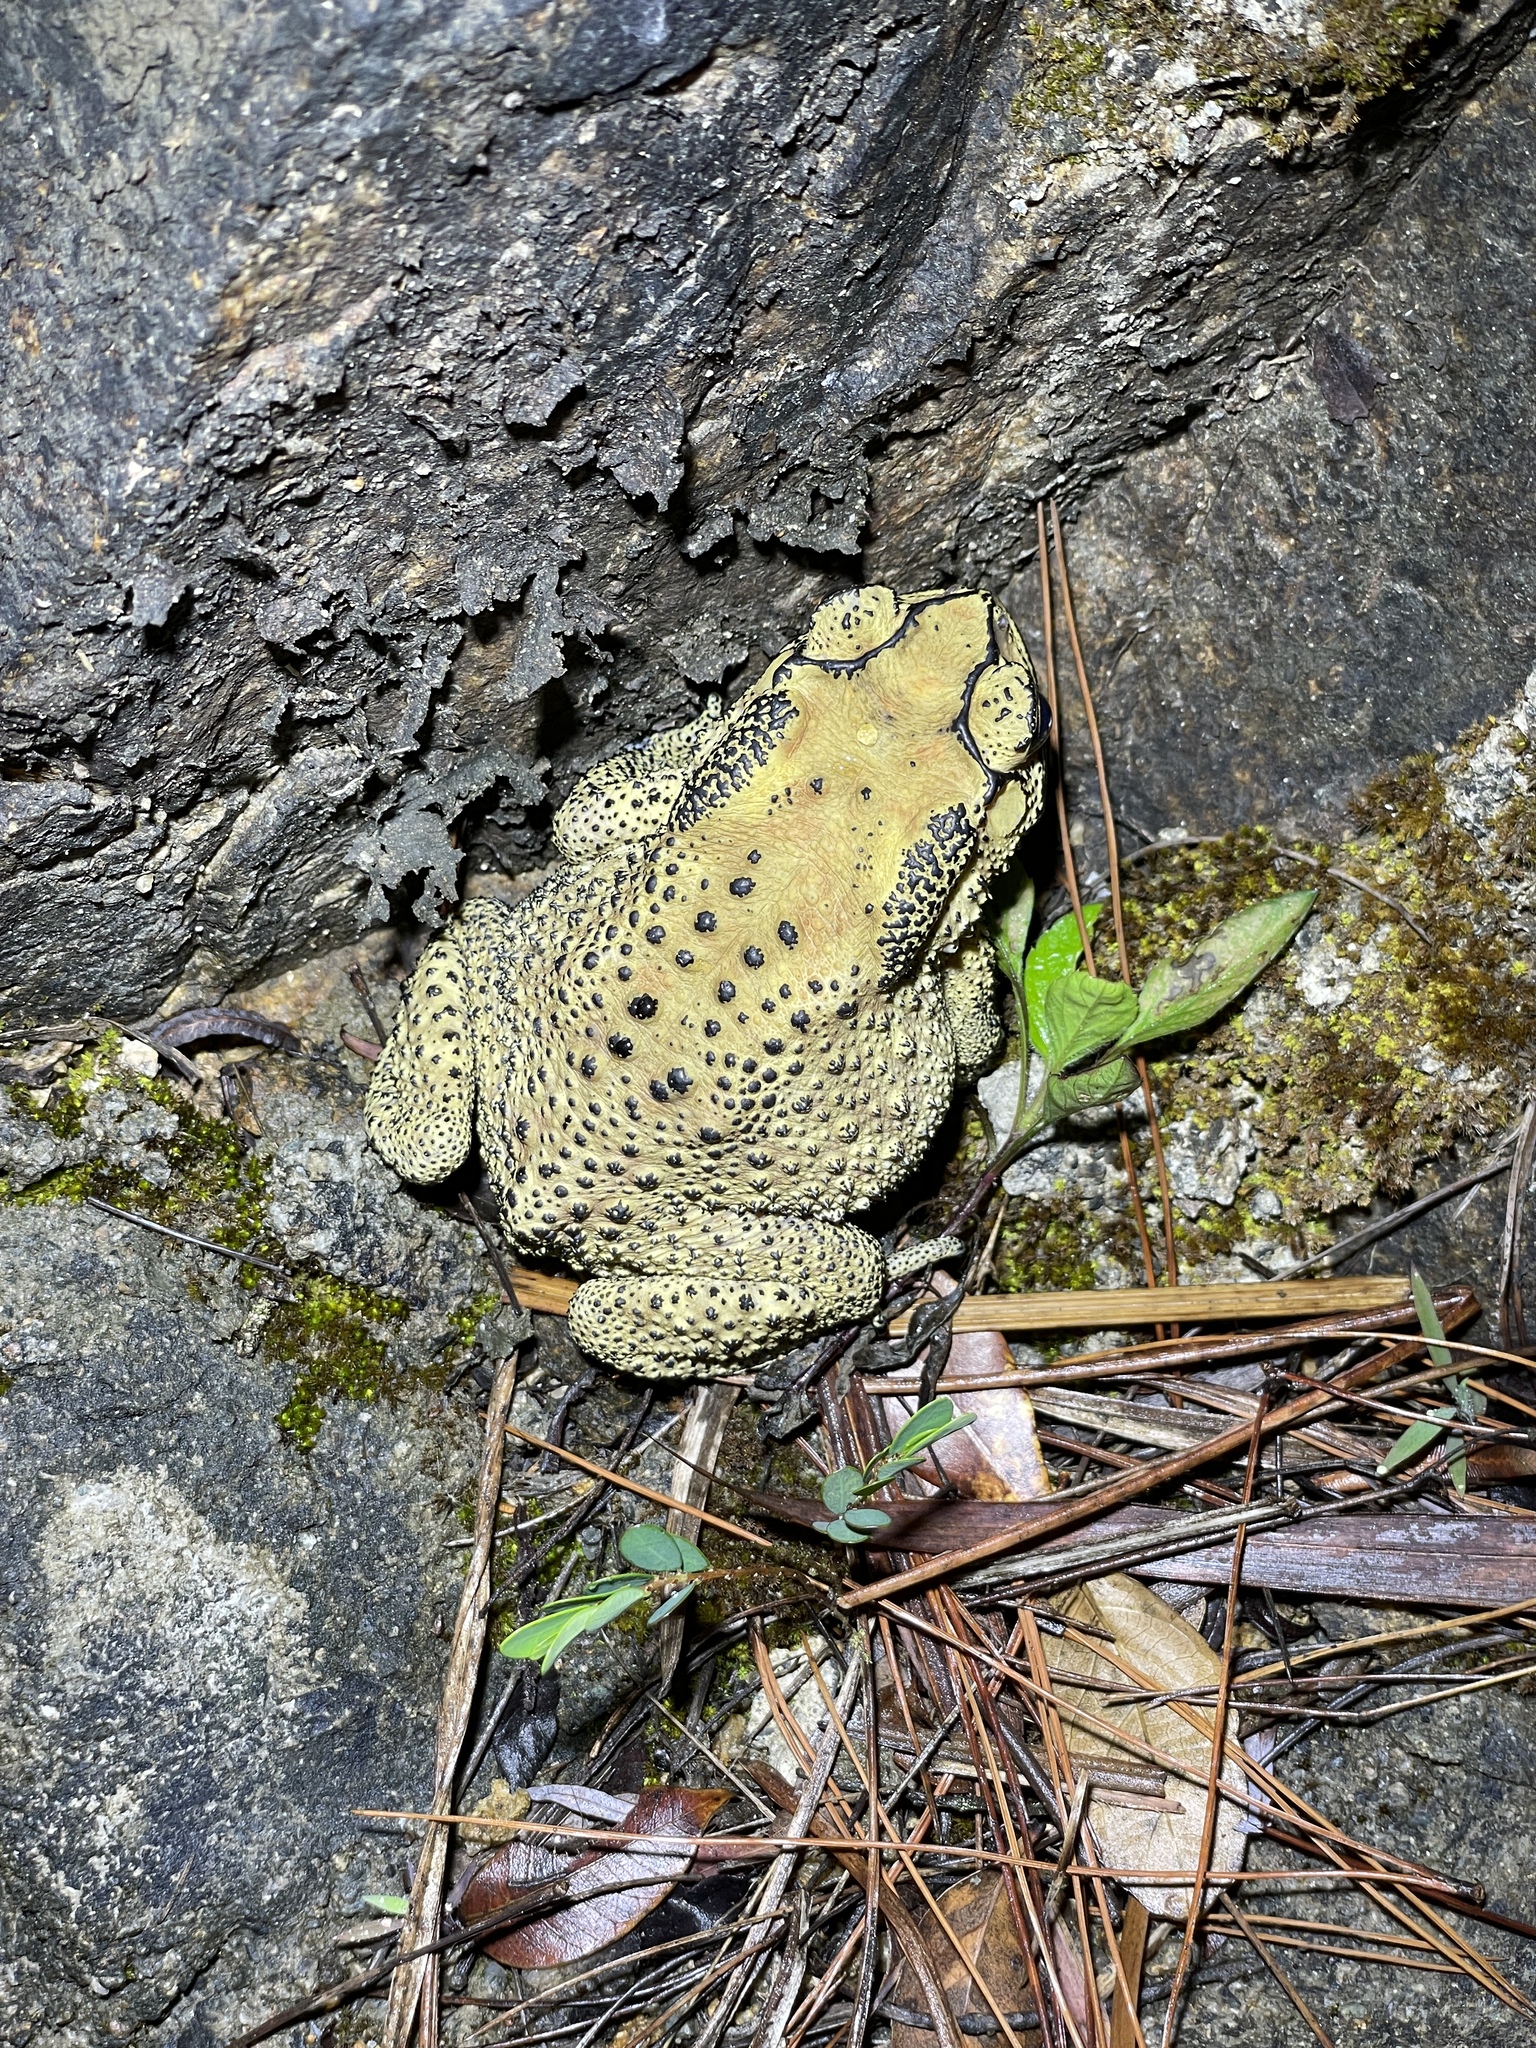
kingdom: Animalia
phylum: Chordata
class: Amphibia
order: Anura
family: Bufonidae
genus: Duttaphrynus
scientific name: Duttaphrynus melanostictus
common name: Common sunda toad
